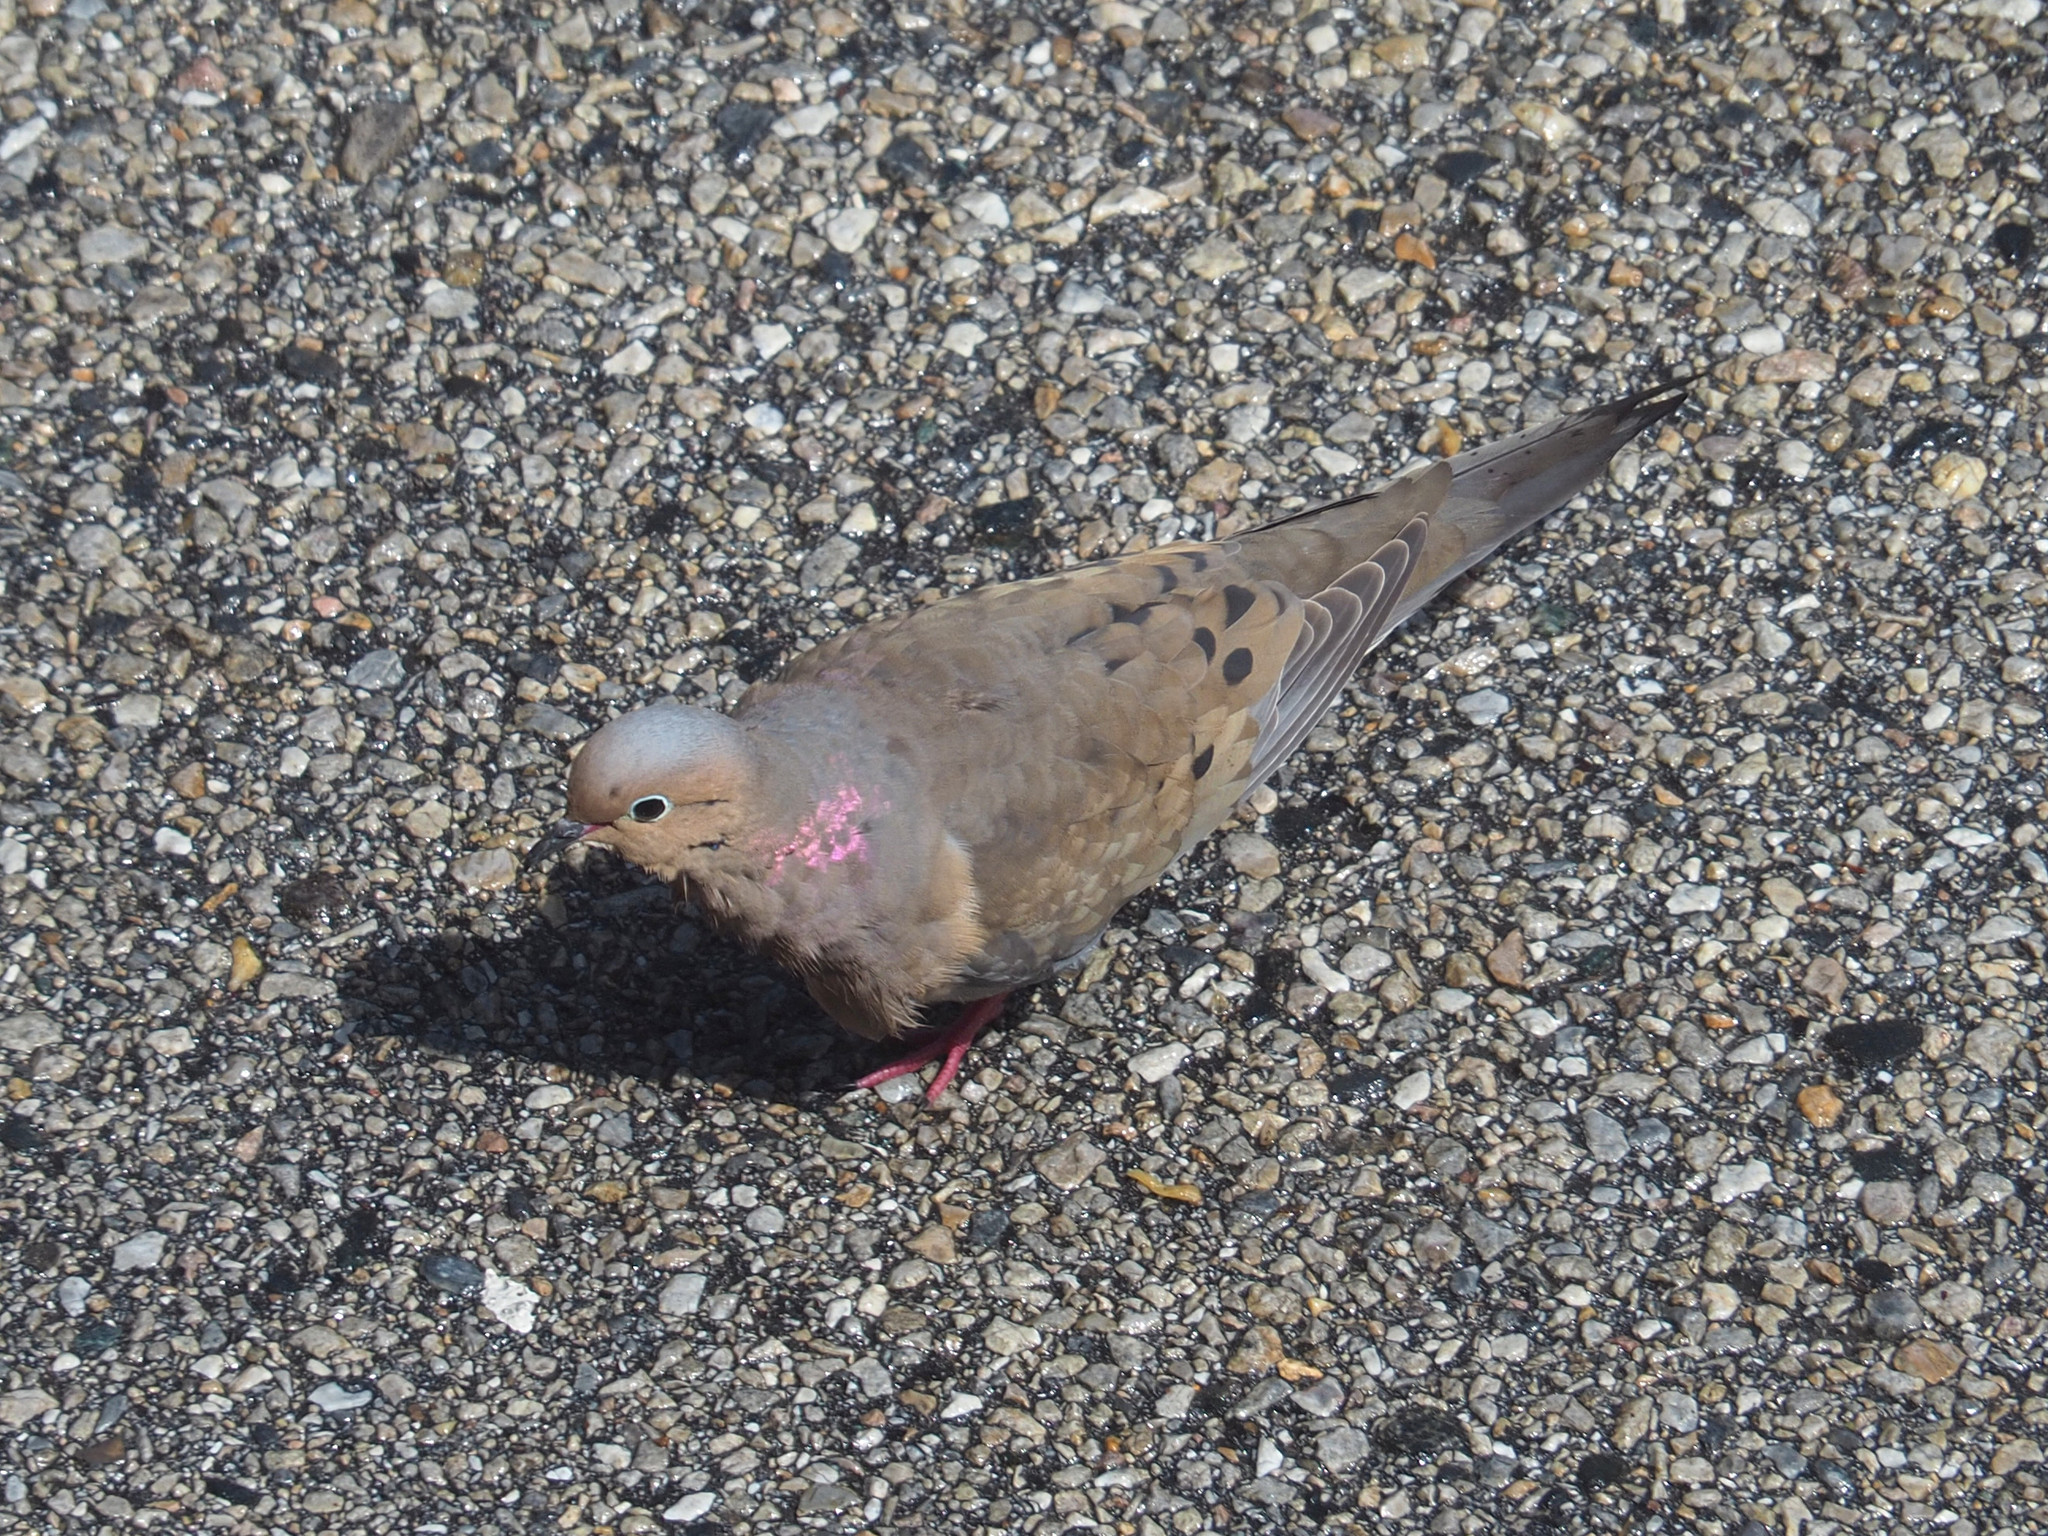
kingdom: Animalia
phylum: Chordata
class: Aves
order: Columbiformes
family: Columbidae
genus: Zenaida
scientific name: Zenaida macroura
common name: Mourning dove
